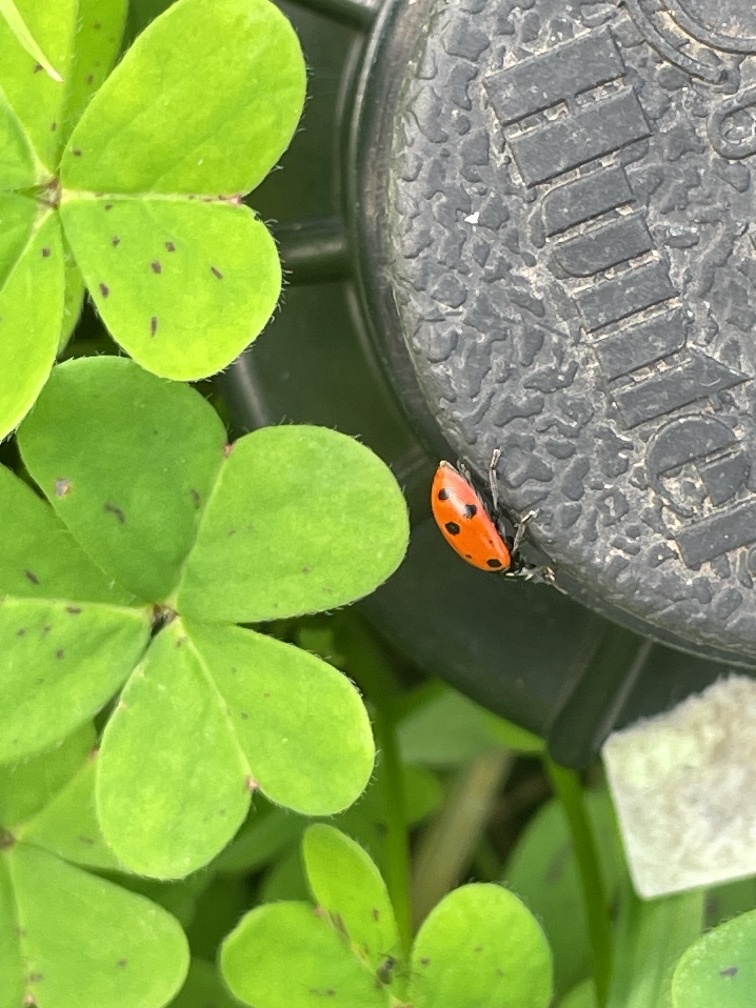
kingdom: Animalia
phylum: Arthropoda
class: Insecta
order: Coleoptera
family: Coccinellidae
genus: Hippodamia
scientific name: Hippodamia convergens
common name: Convergent lady beetle
